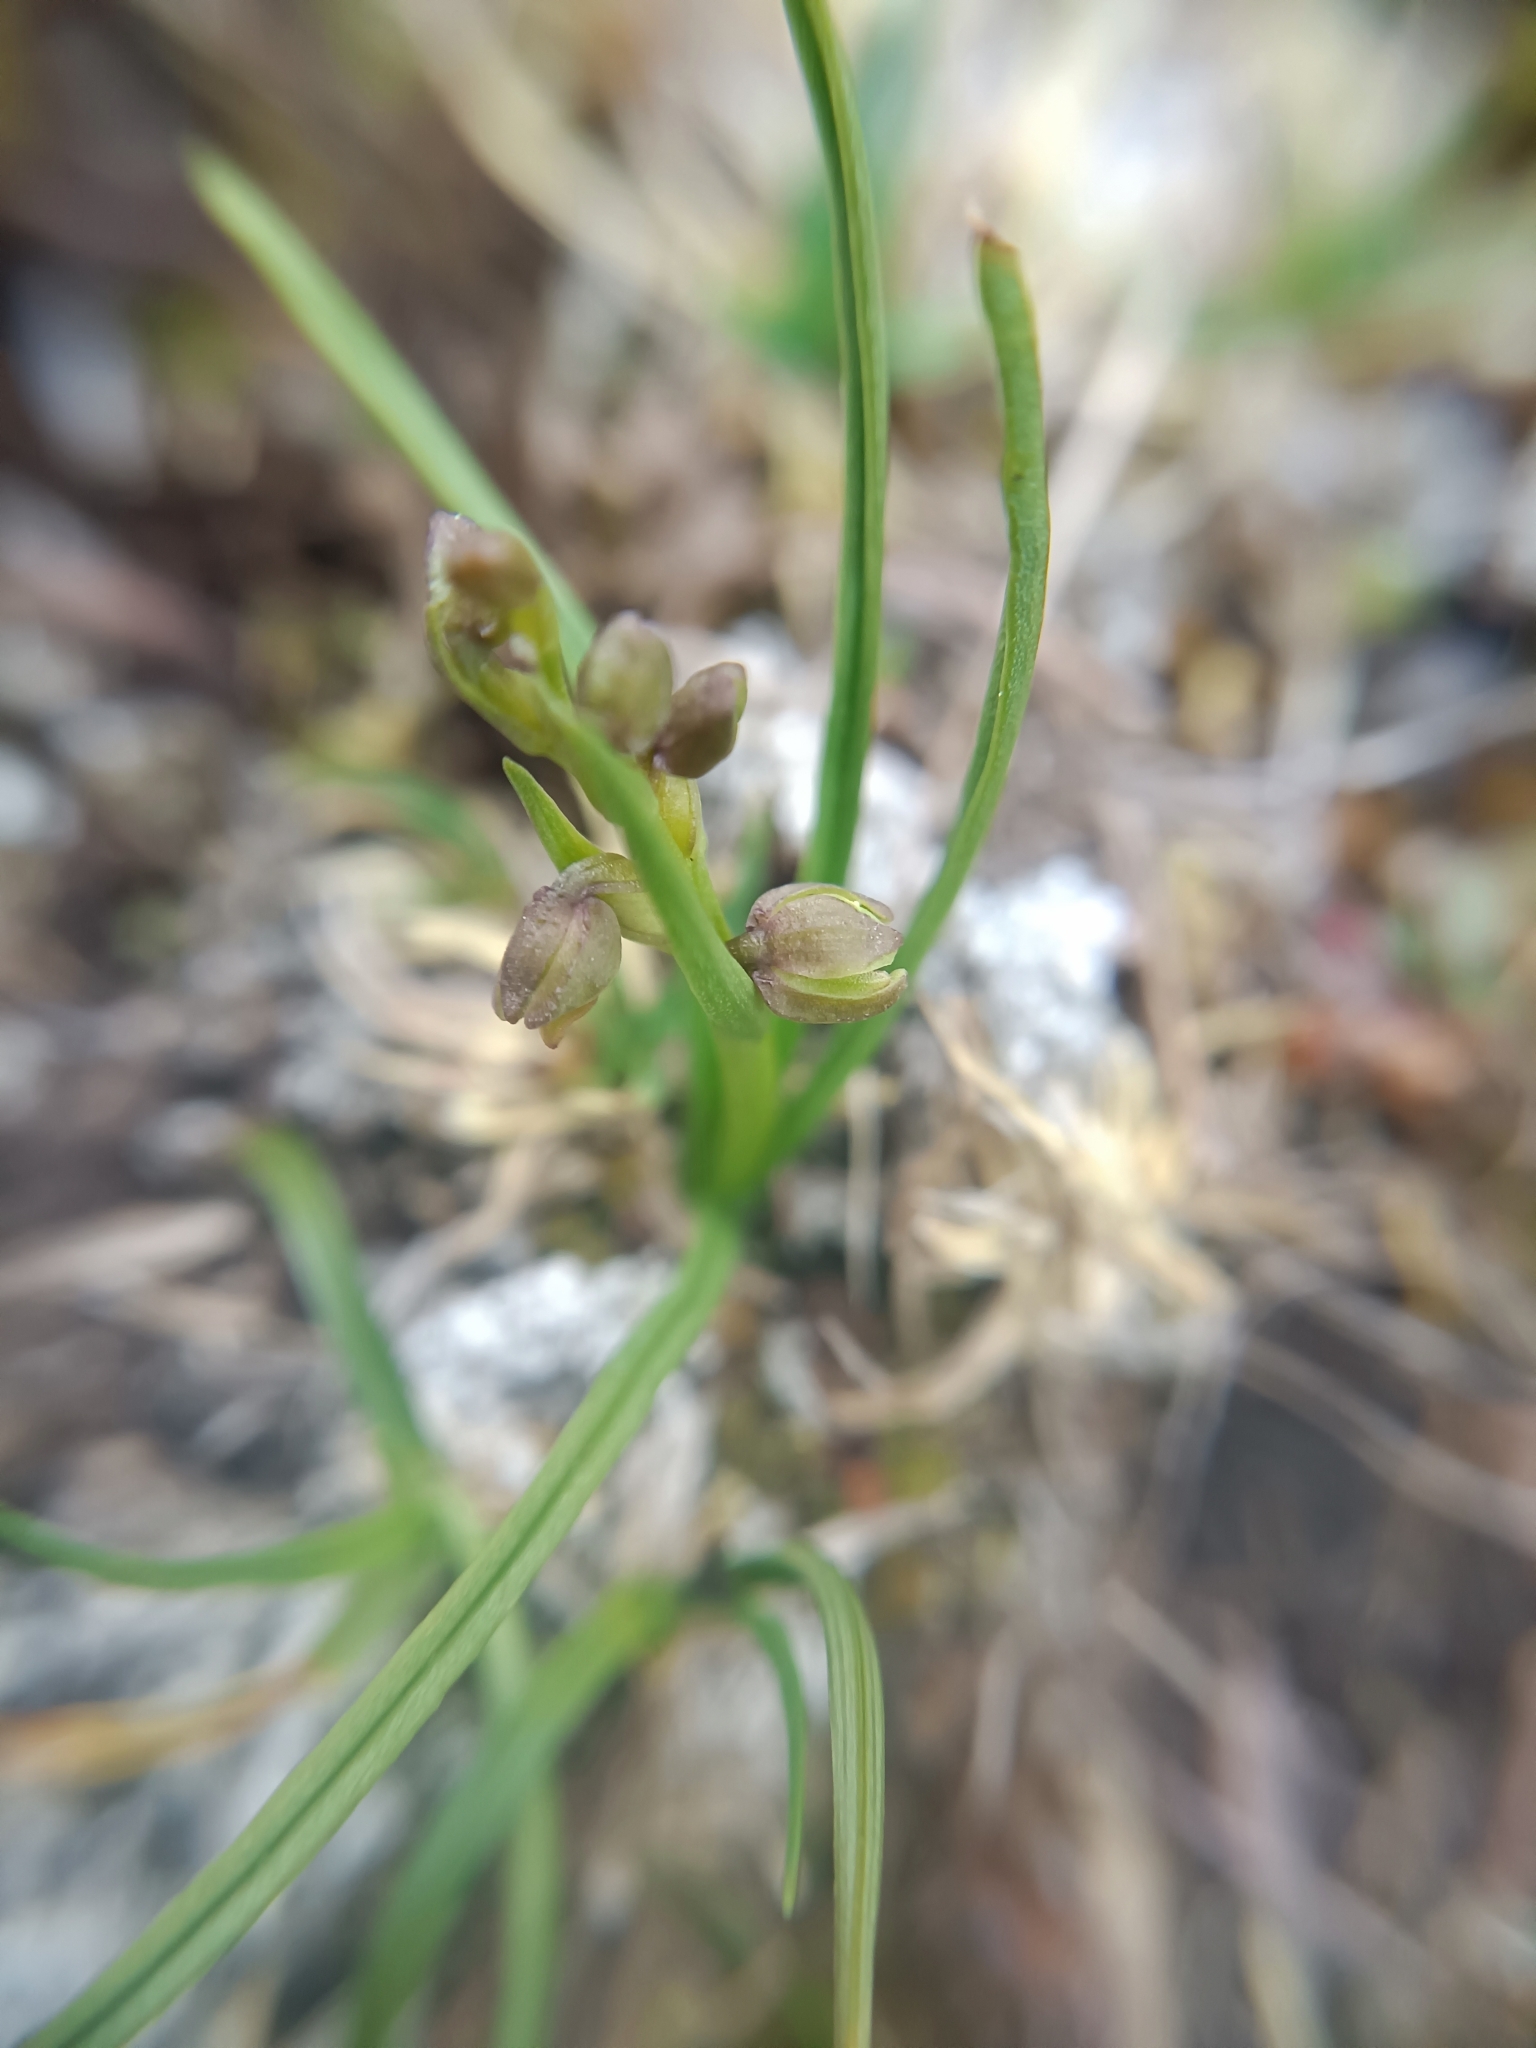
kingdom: Plantae
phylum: Tracheophyta
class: Liliopsida
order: Asparagales
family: Orchidaceae
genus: Chamorchis
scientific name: Chamorchis alpina
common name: Alpine chamorchis
